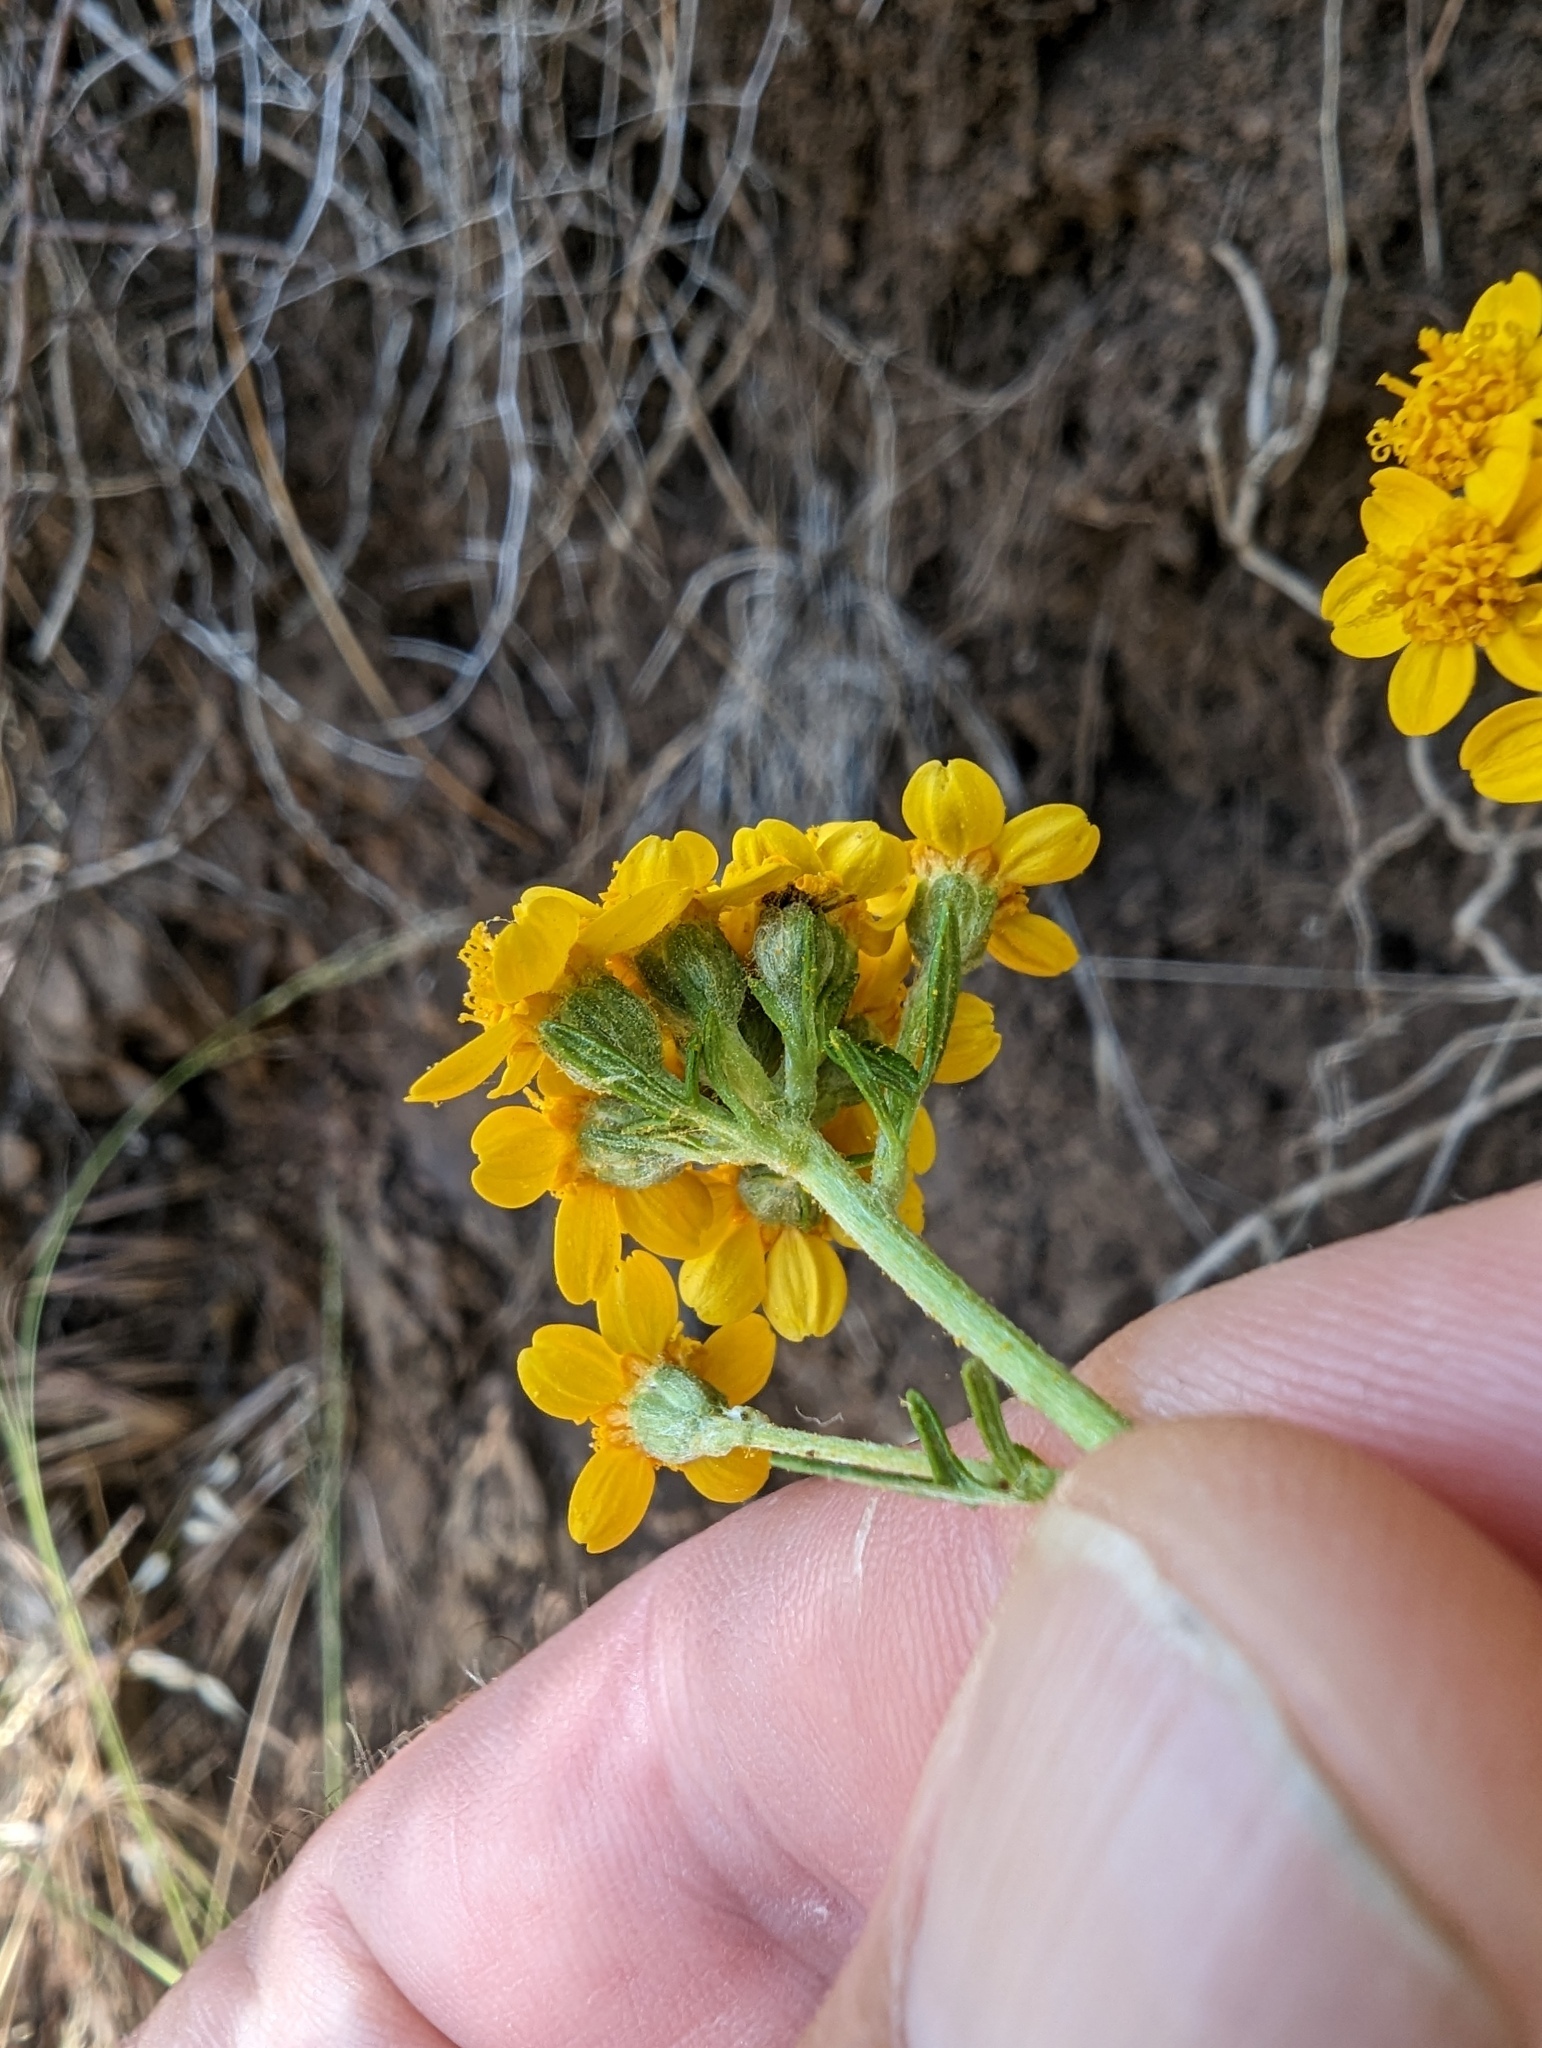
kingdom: Plantae
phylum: Tracheophyta
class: Magnoliopsida
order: Asterales
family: Asteraceae
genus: Eriophyllum
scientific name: Eriophyllum confertiflorum
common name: Golden-yarrow
